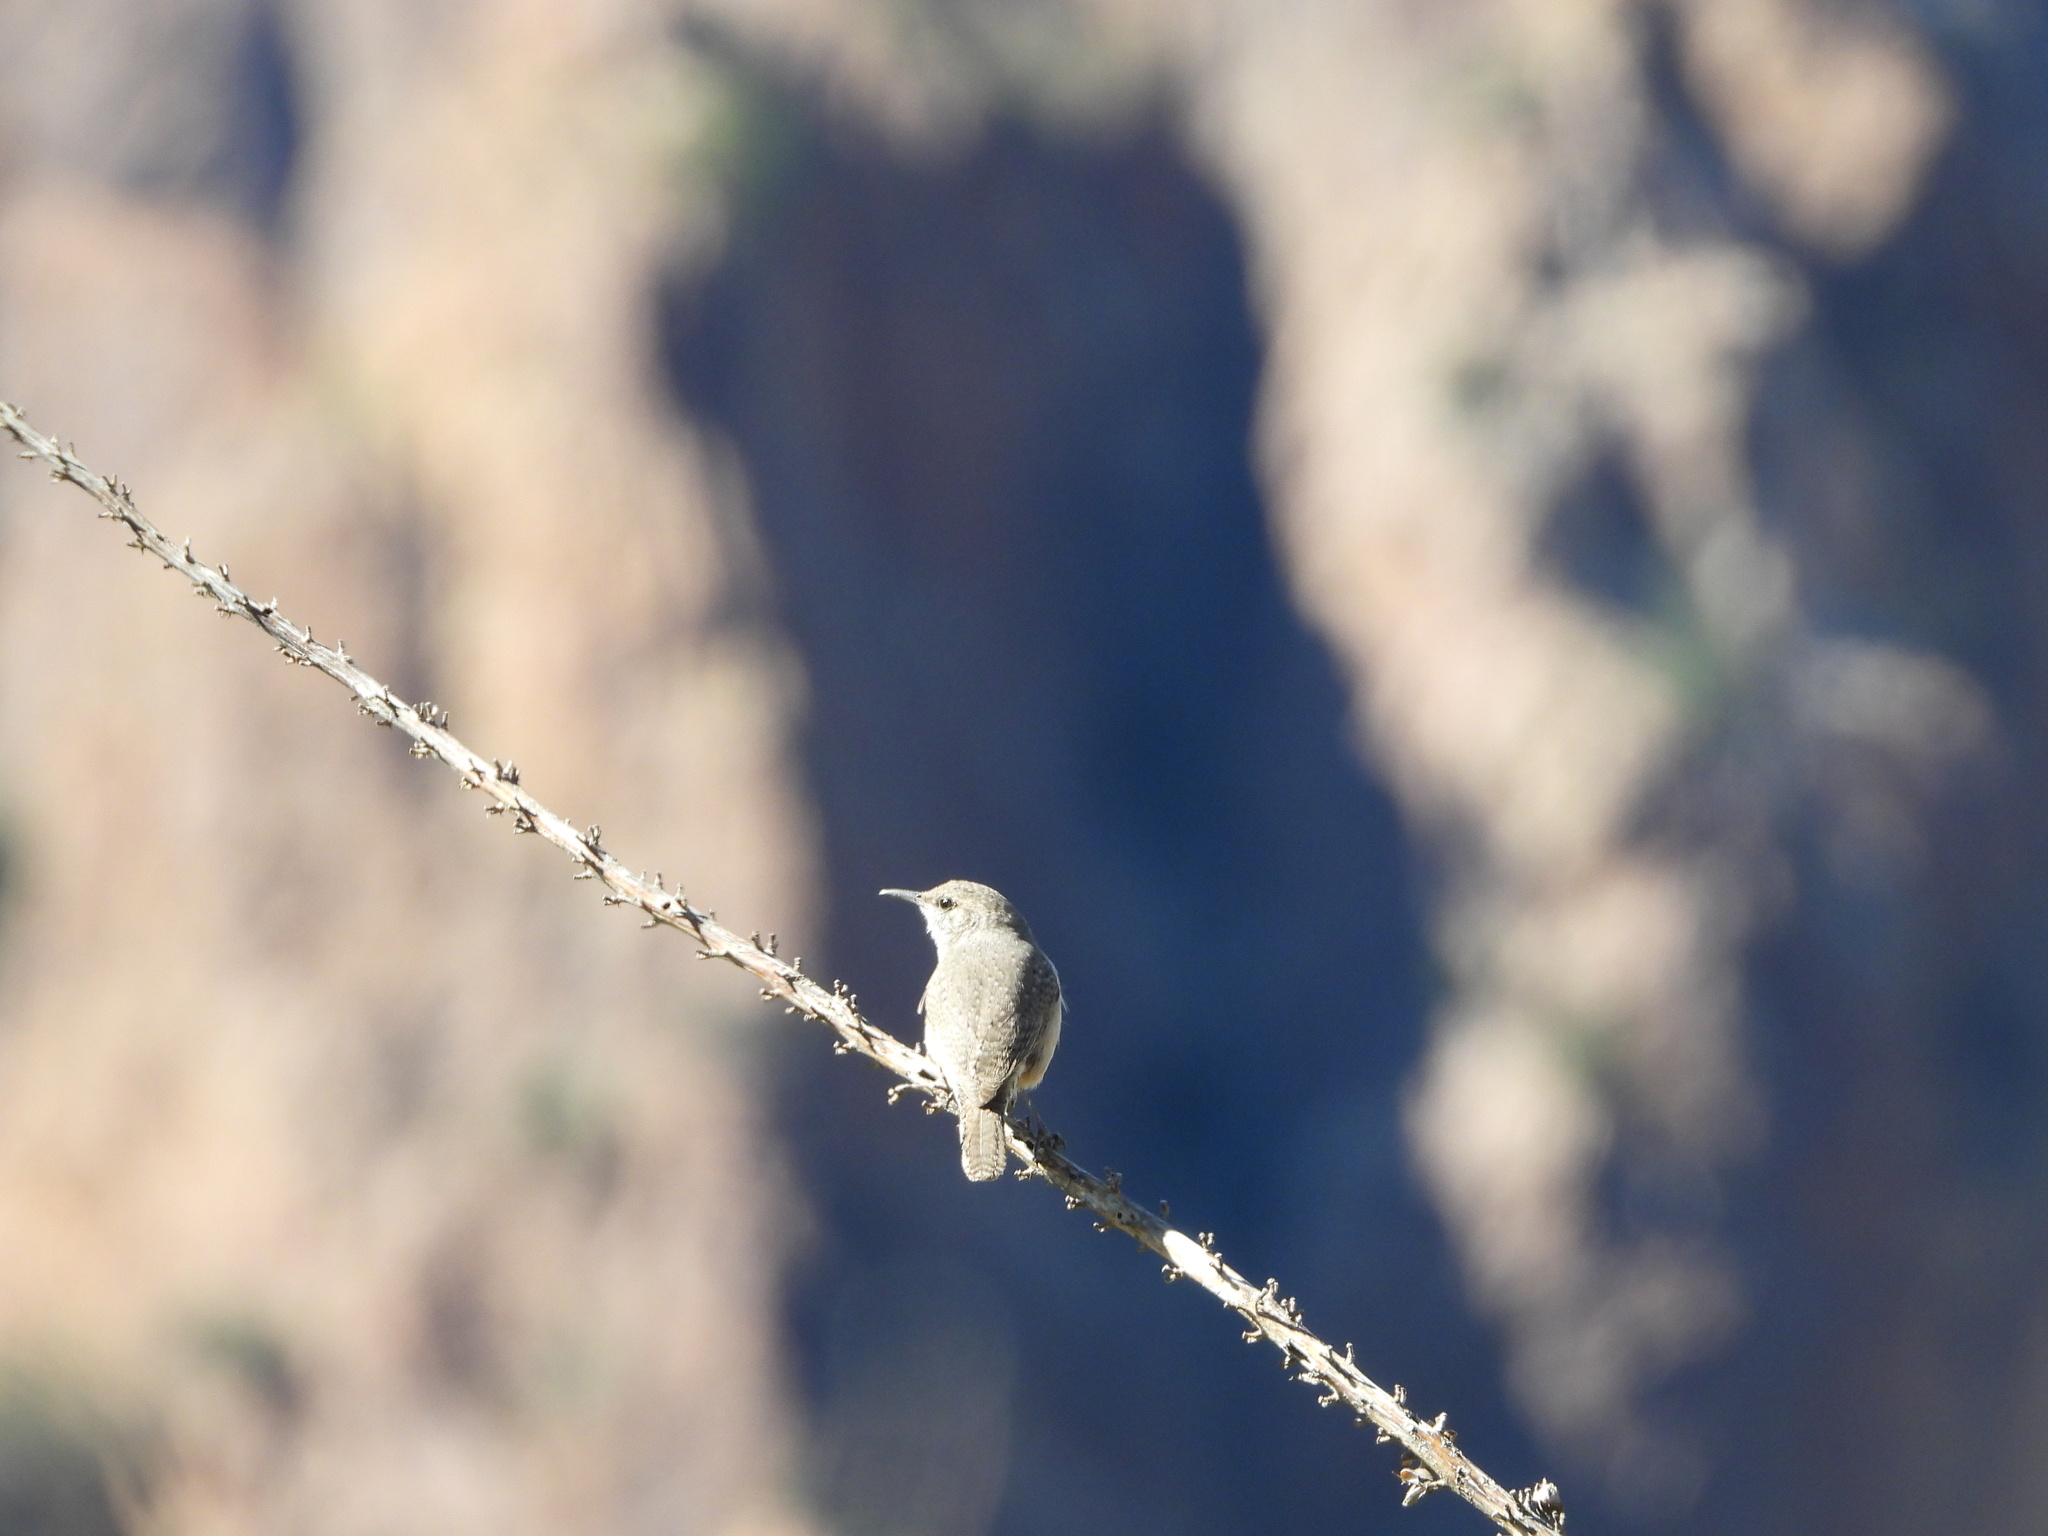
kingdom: Animalia
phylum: Chordata
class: Aves
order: Passeriformes
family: Troglodytidae
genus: Salpinctes
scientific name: Salpinctes obsoletus
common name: Rock wren
